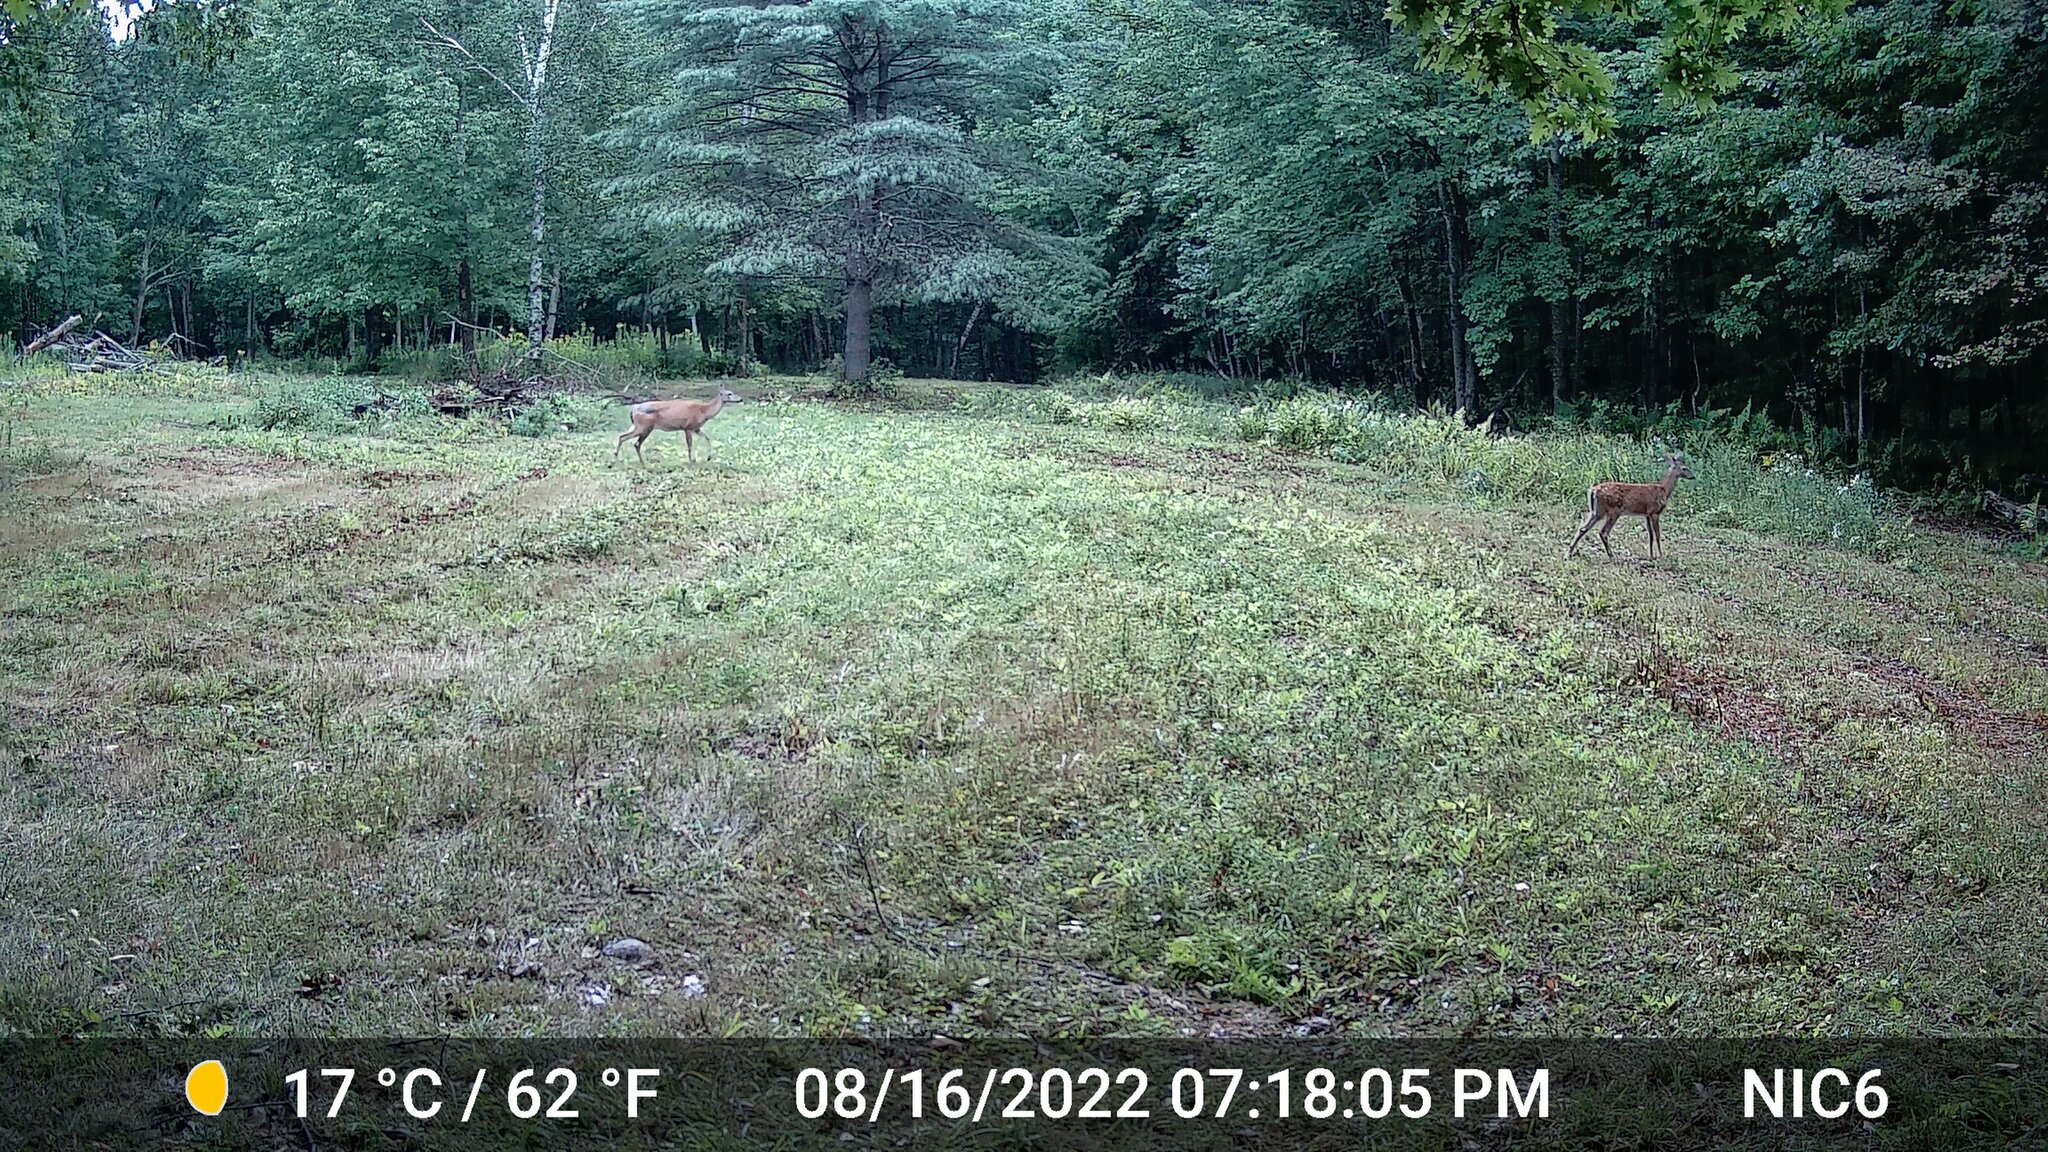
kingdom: Animalia
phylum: Chordata
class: Mammalia
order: Artiodactyla
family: Cervidae
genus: Odocoileus
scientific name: Odocoileus virginianus
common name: White-tailed deer
